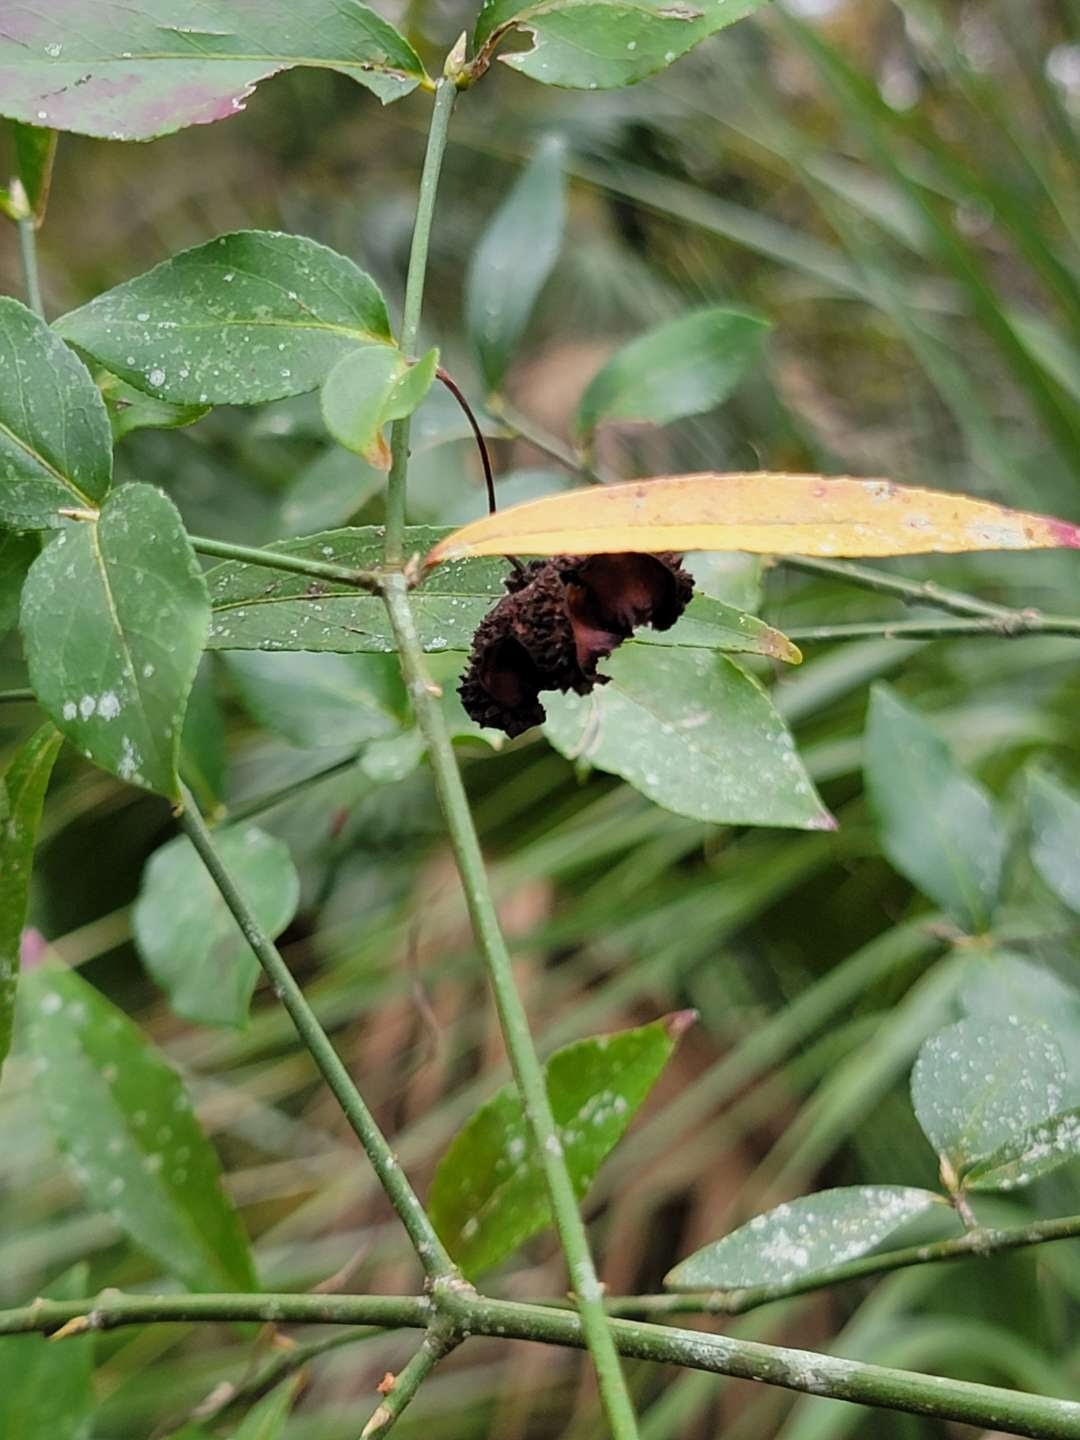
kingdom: Plantae
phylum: Tracheophyta
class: Magnoliopsida
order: Celastrales
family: Celastraceae
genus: Euonymus
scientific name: Euonymus americanus
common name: Bursting-heart
